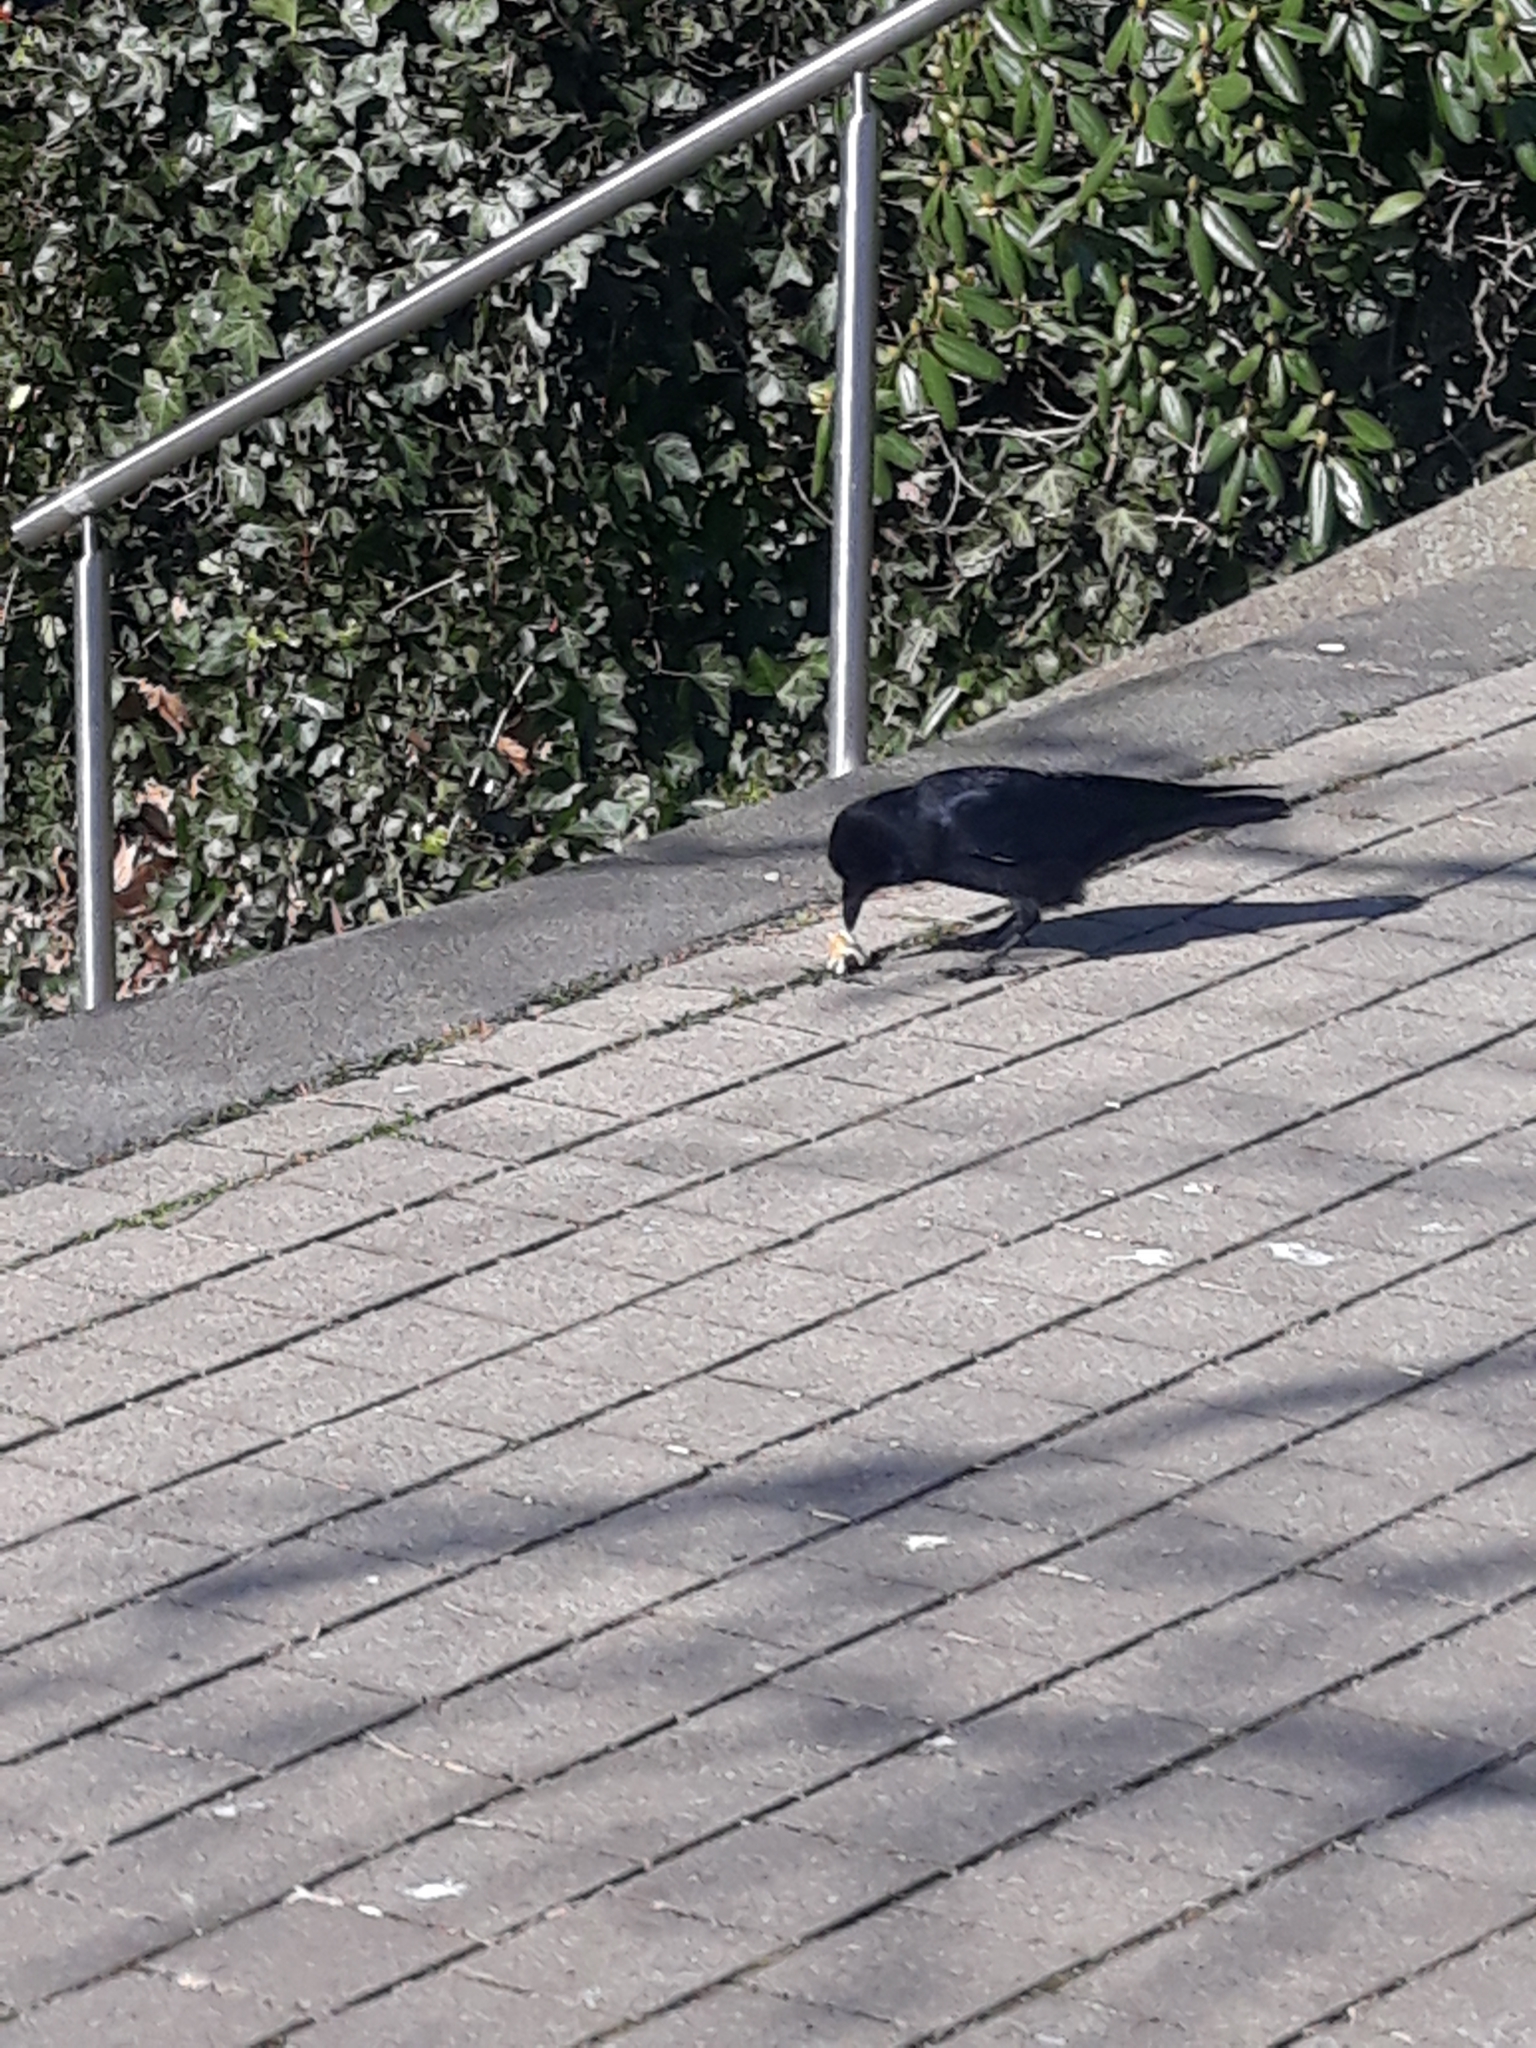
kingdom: Animalia
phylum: Chordata
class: Aves
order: Passeriformes
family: Corvidae
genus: Corvus
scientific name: Corvus corone
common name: Carrion crow
